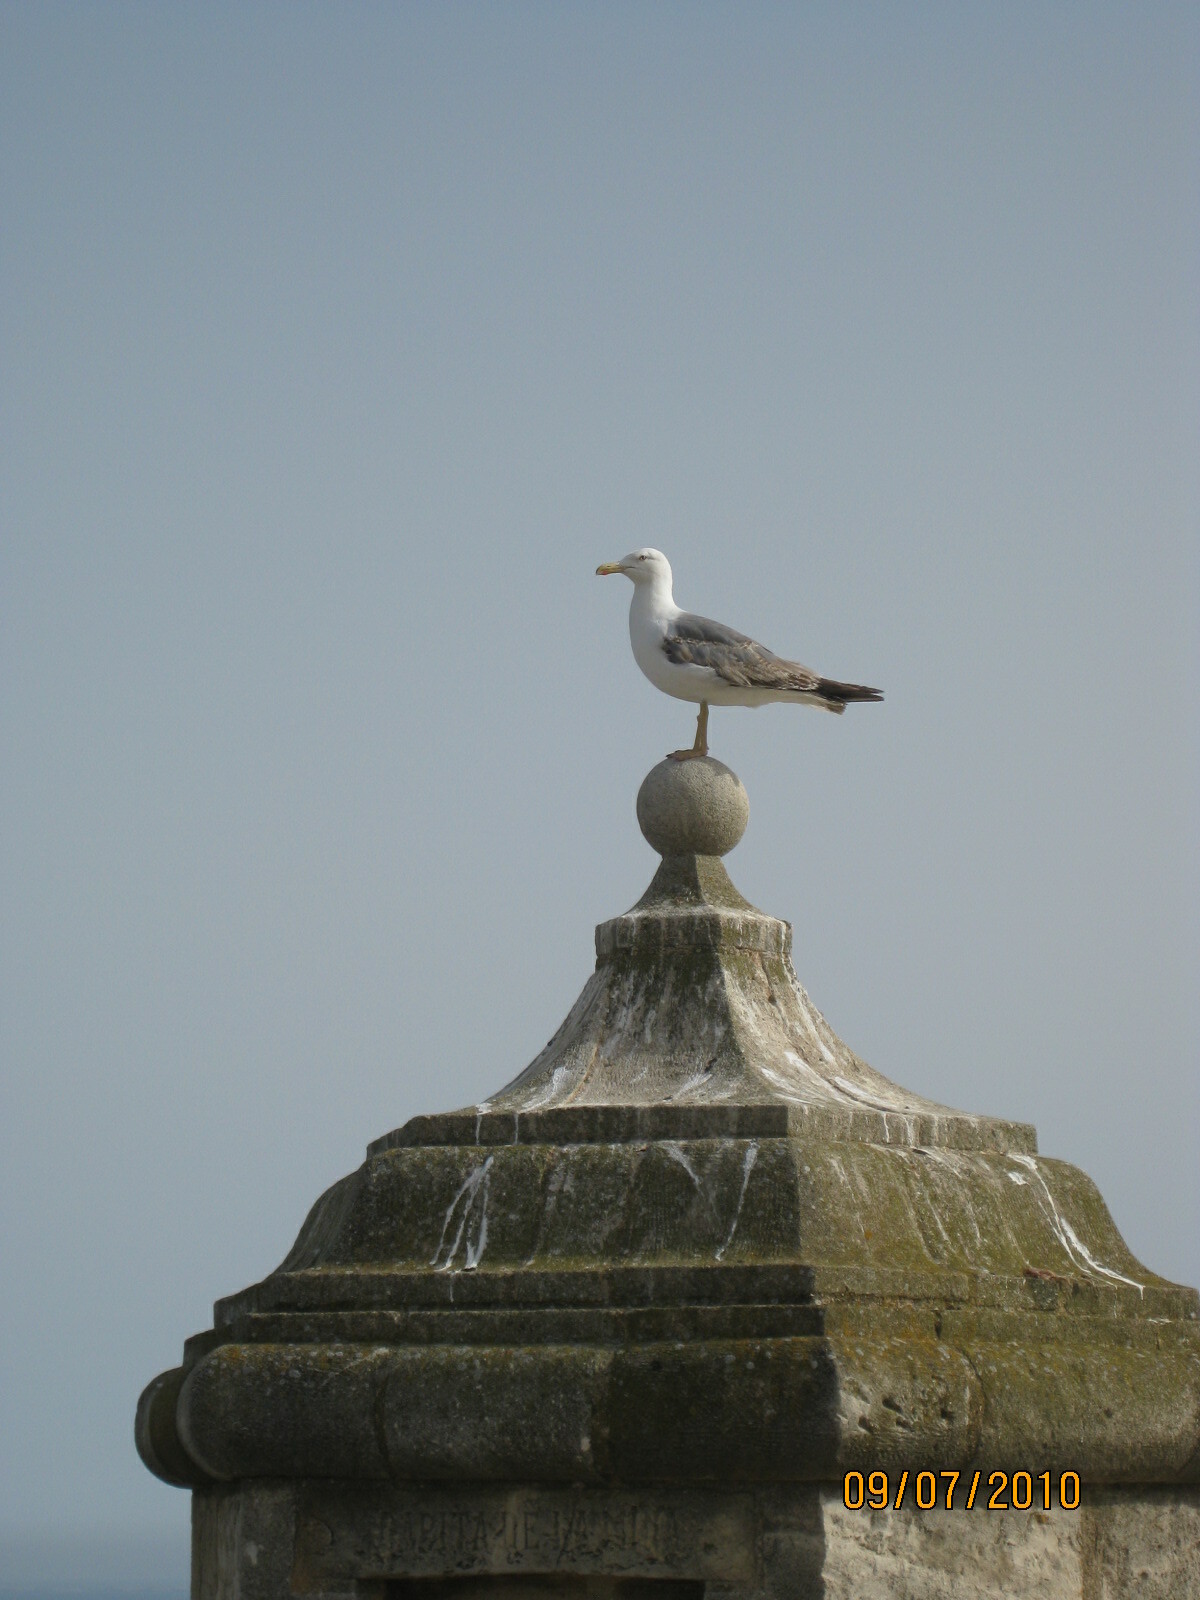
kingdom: Animalia
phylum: Chordata
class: Aves
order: Charadriiformes
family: Laridae
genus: Larus
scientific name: Larus michahellis
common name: Yellow-legged gull
